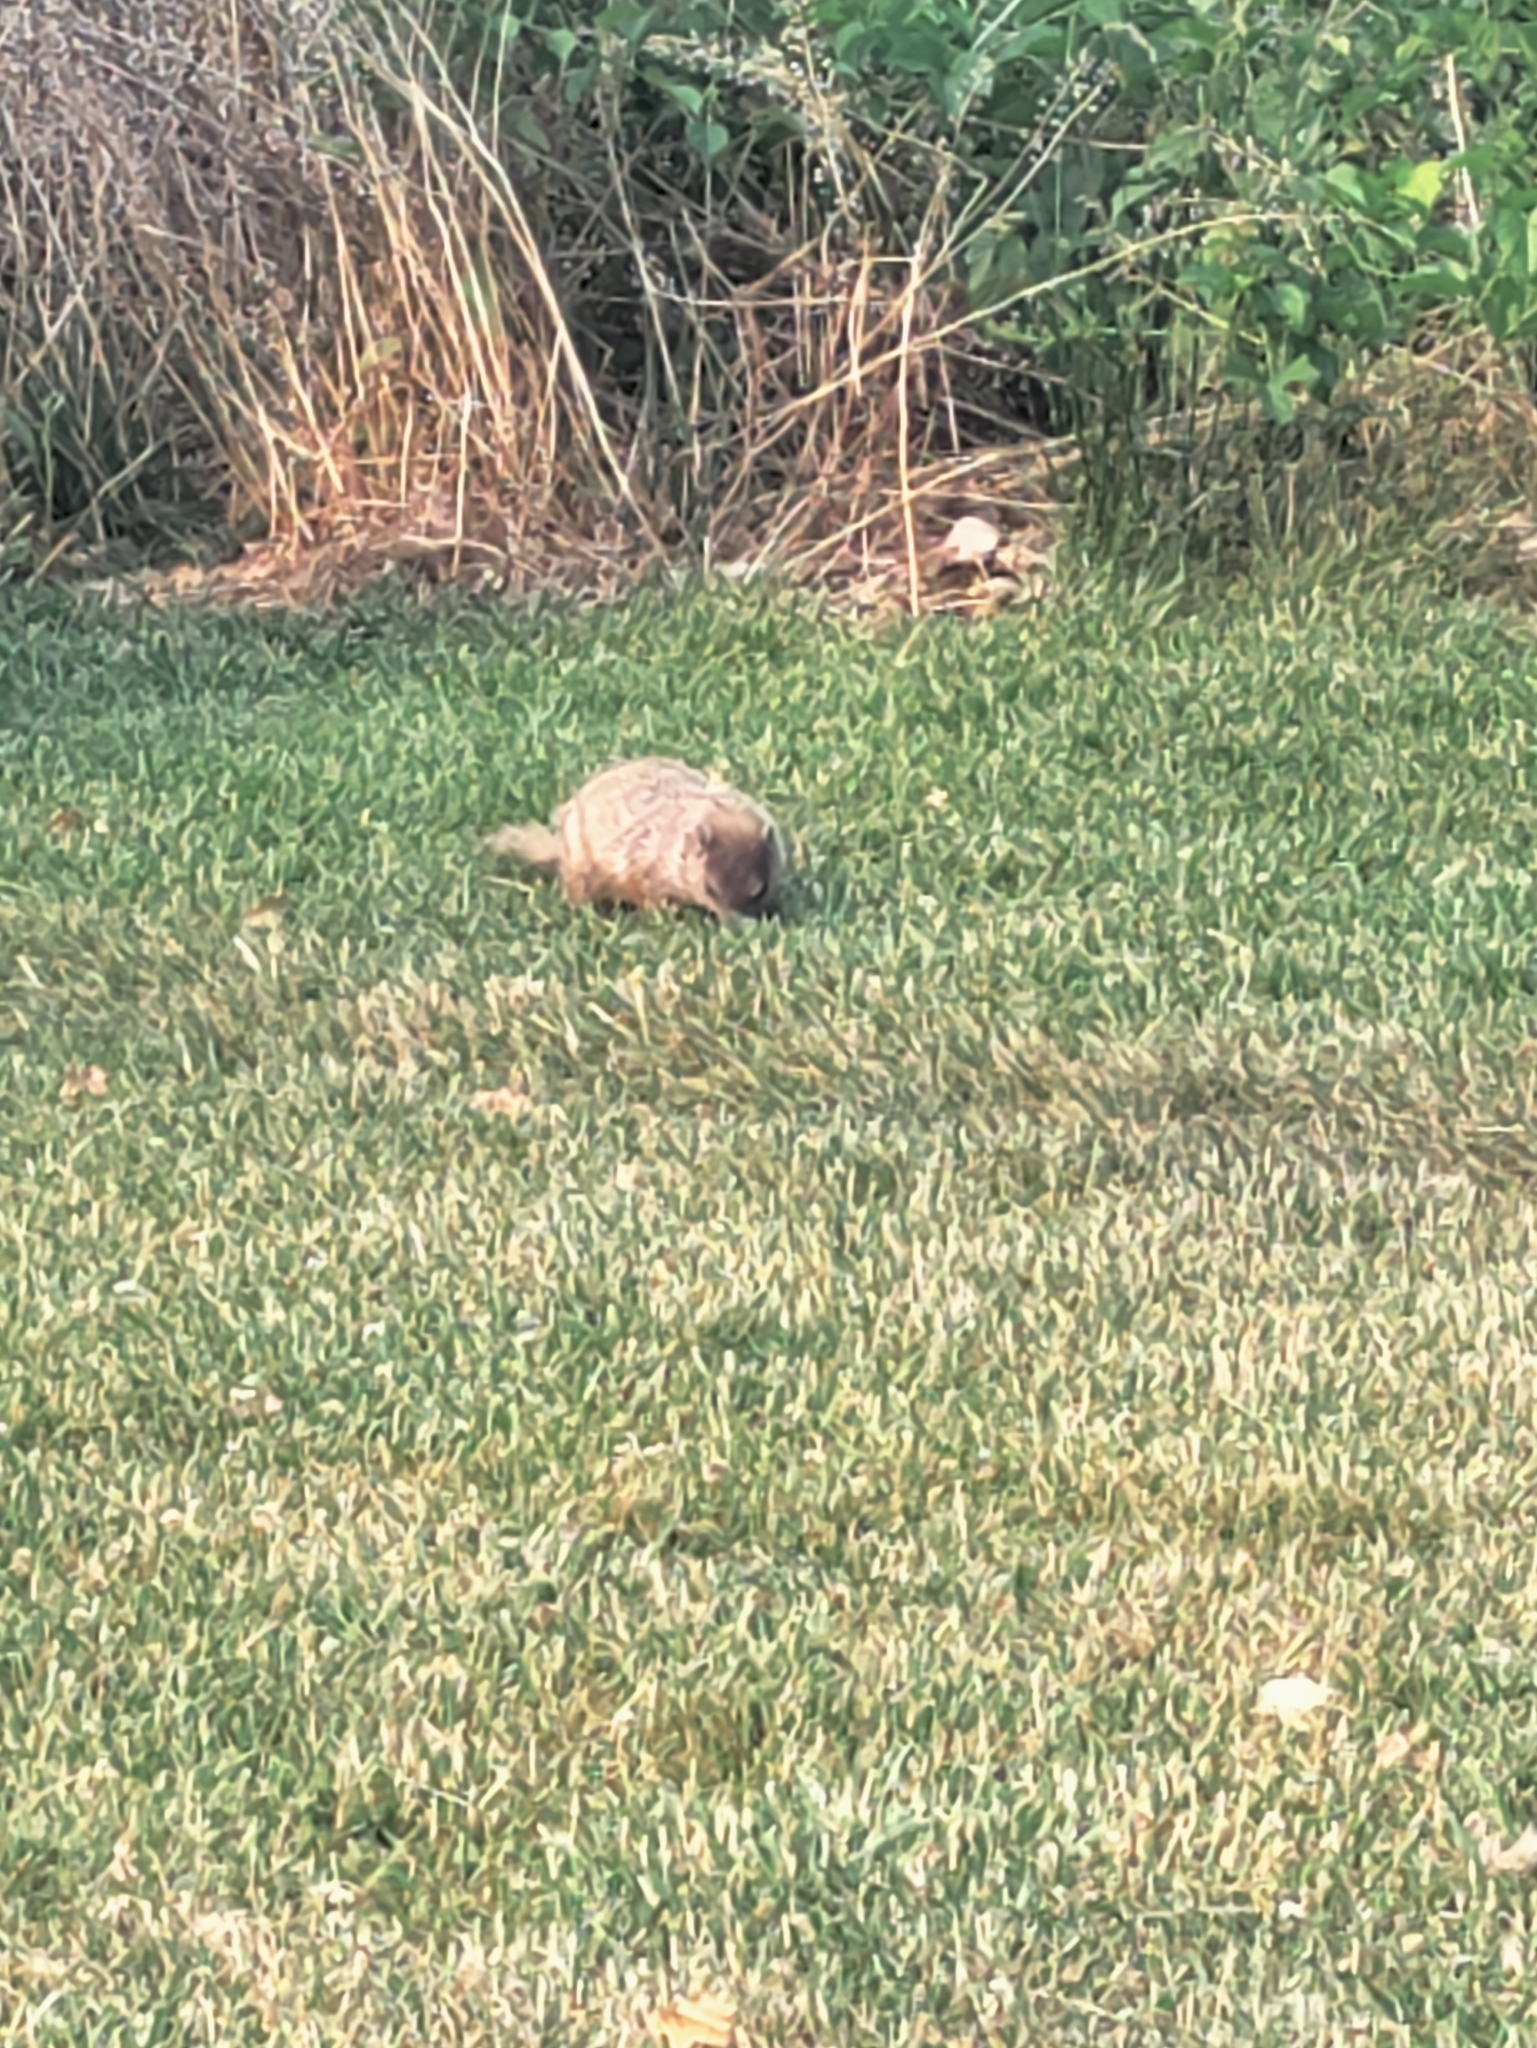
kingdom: Animalia
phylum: Chordata
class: Mammalia
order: Rodentia
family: Sciuridae
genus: Marmota
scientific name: Marmota monax
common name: Groundhog
